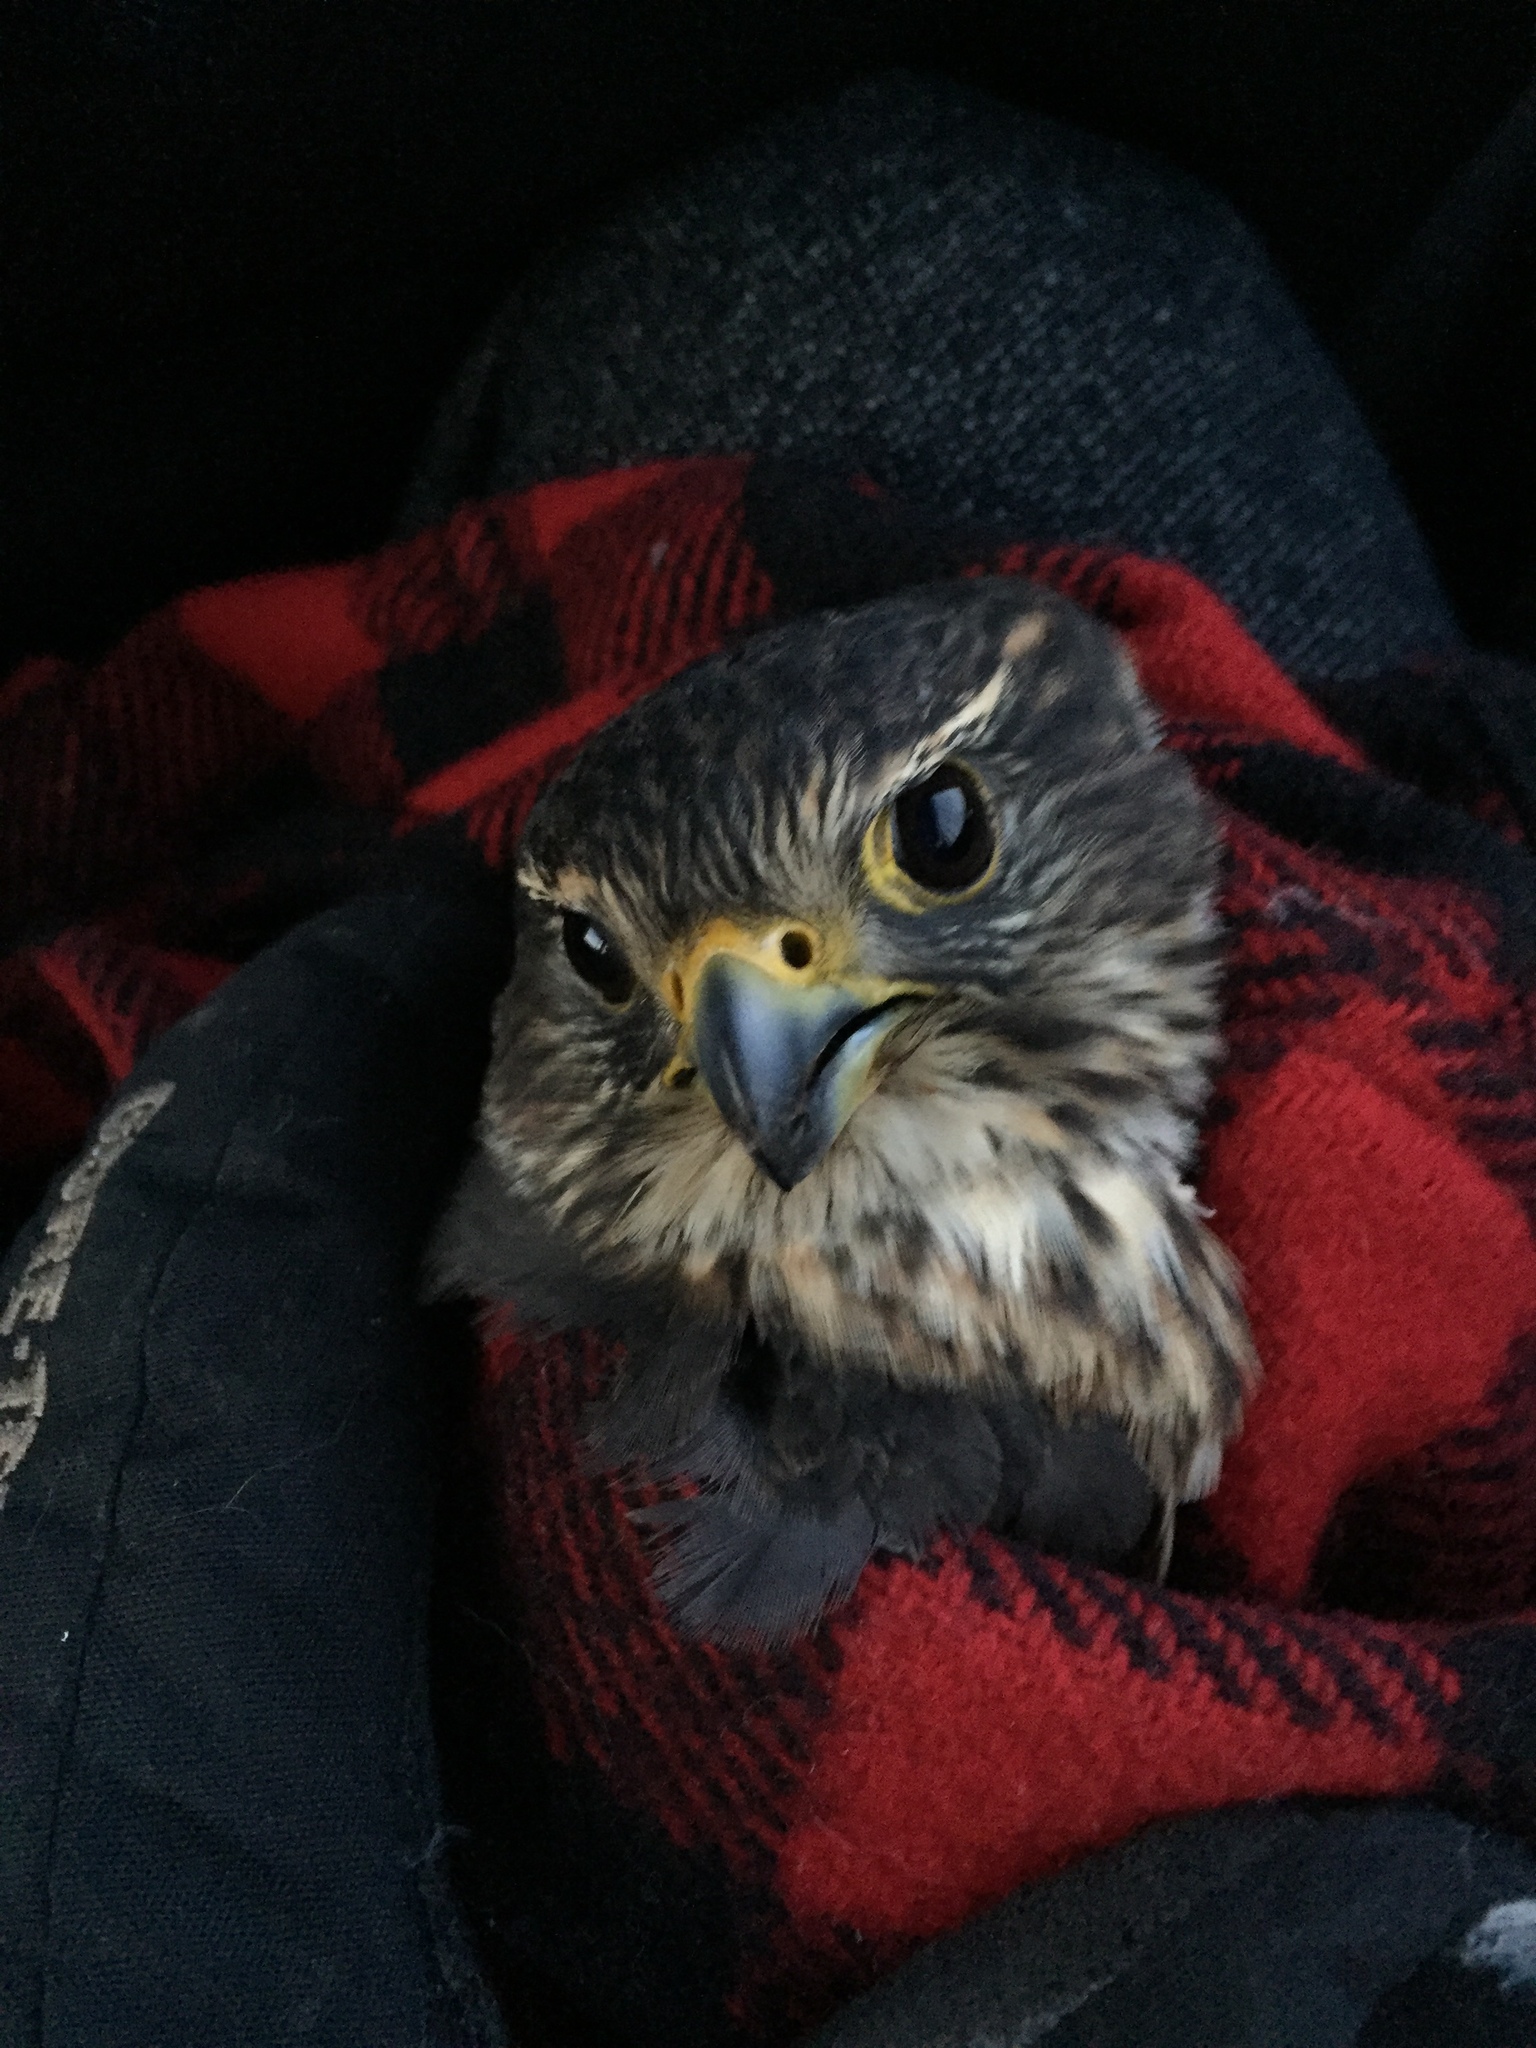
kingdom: Animalia
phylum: Chordata
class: Aves
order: Falconiformes
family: Falconidae
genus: Falco
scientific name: Falco columbarius
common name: Merlin
